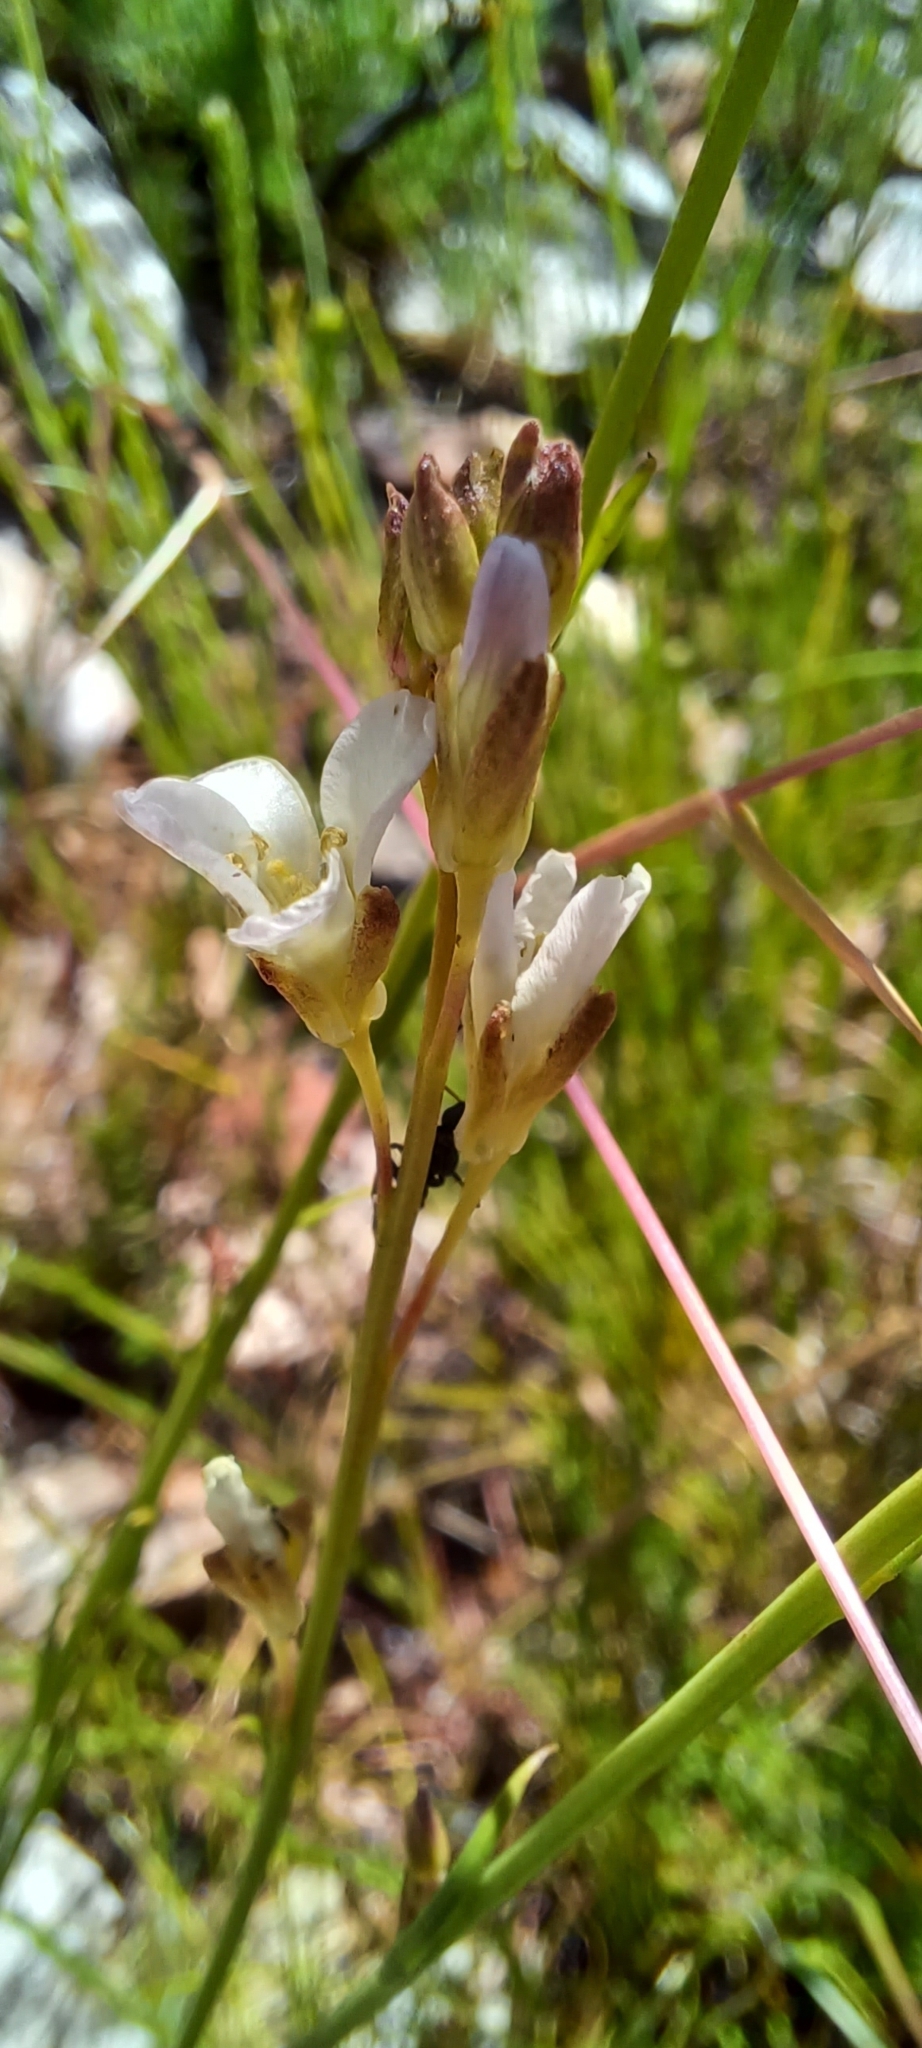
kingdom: Plantae
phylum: Tracheophyta
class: Magnoliopsida
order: Brassicales
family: Brassicaceae
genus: Heliophila
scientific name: Heliophila scoparia
